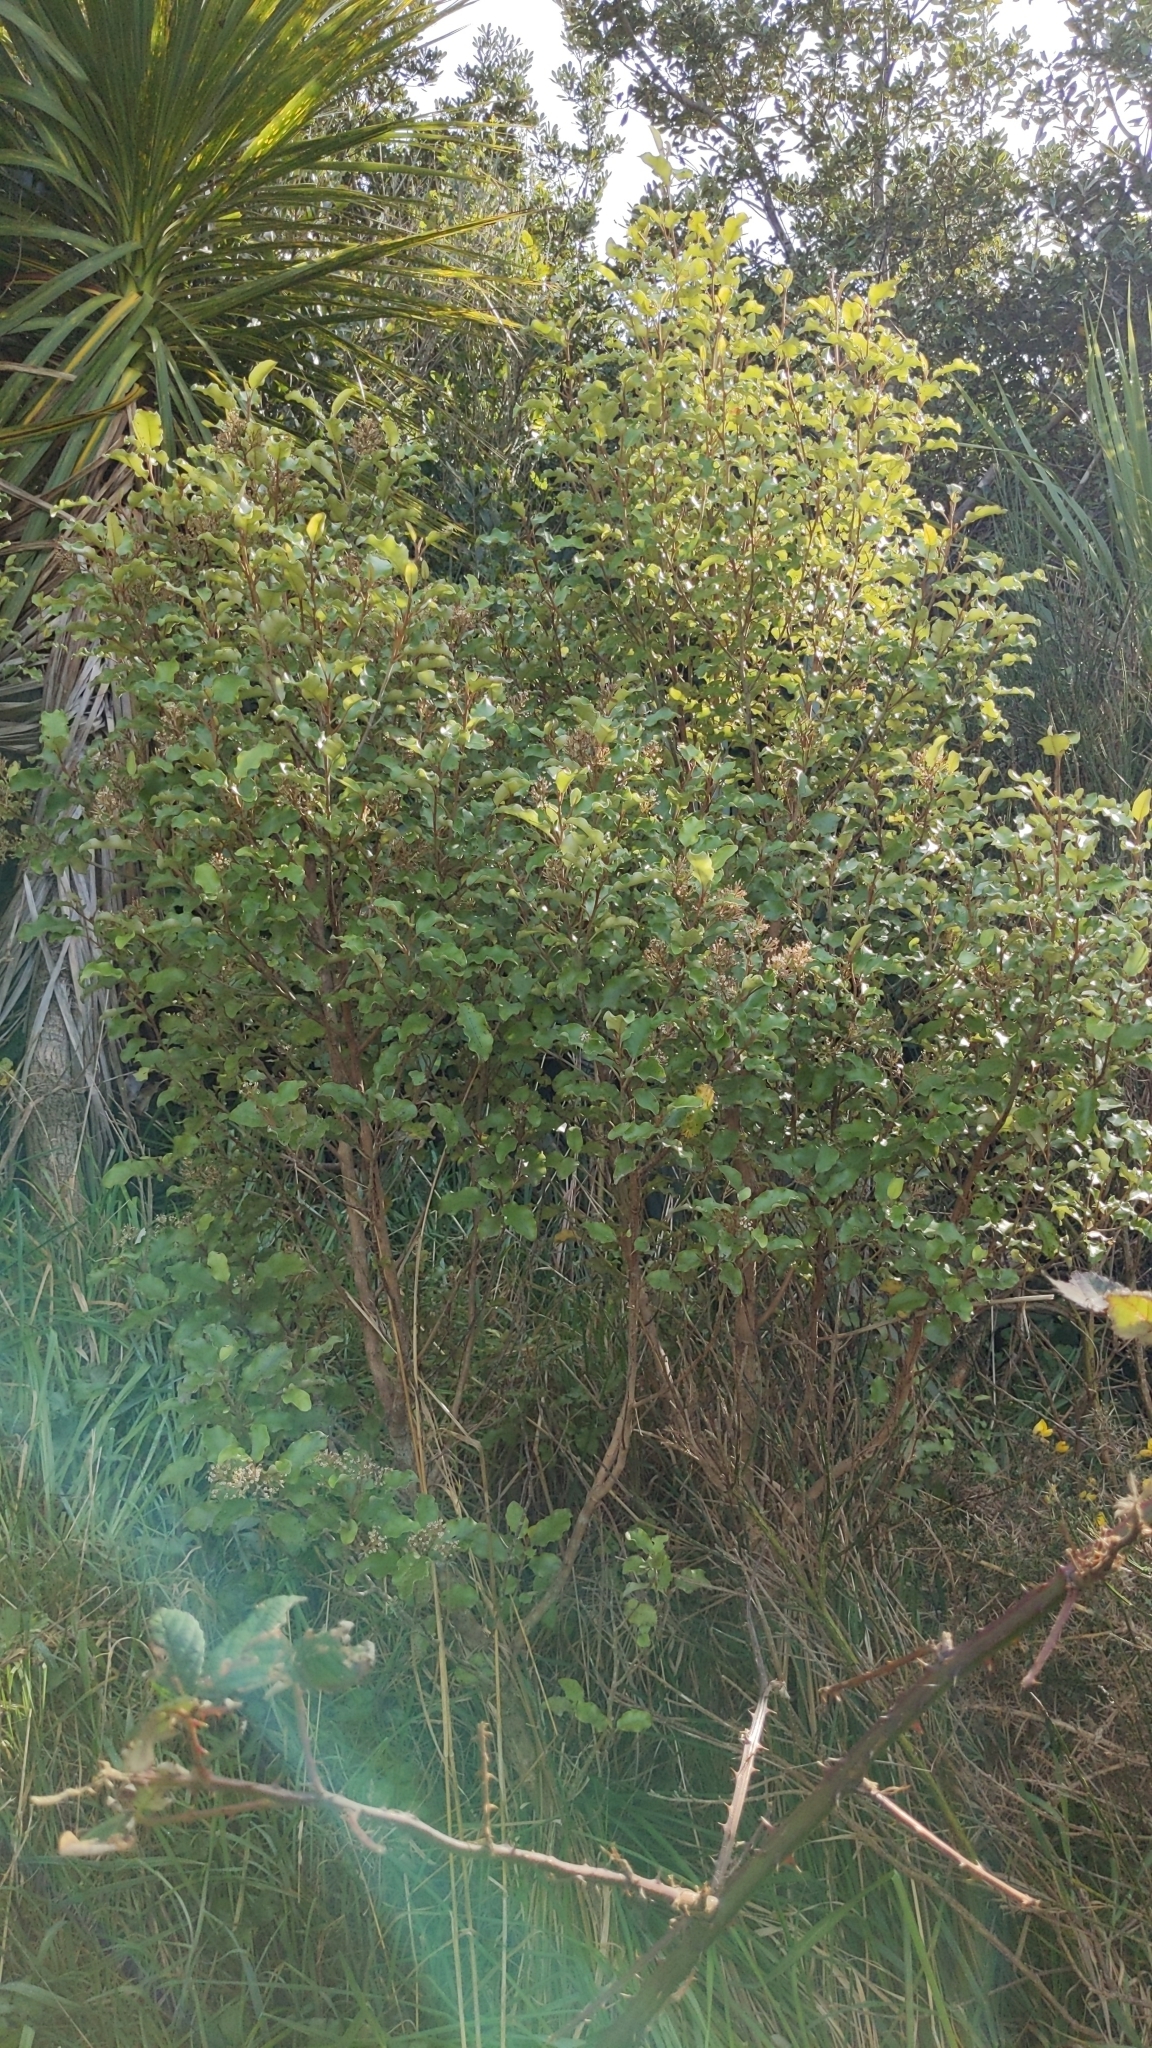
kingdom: Plantae
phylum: Tracheophyta
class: Magnoliopsida
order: Asterales
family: Asteraceae
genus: Olearia
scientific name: Olearia paniculata
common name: Akiraho
